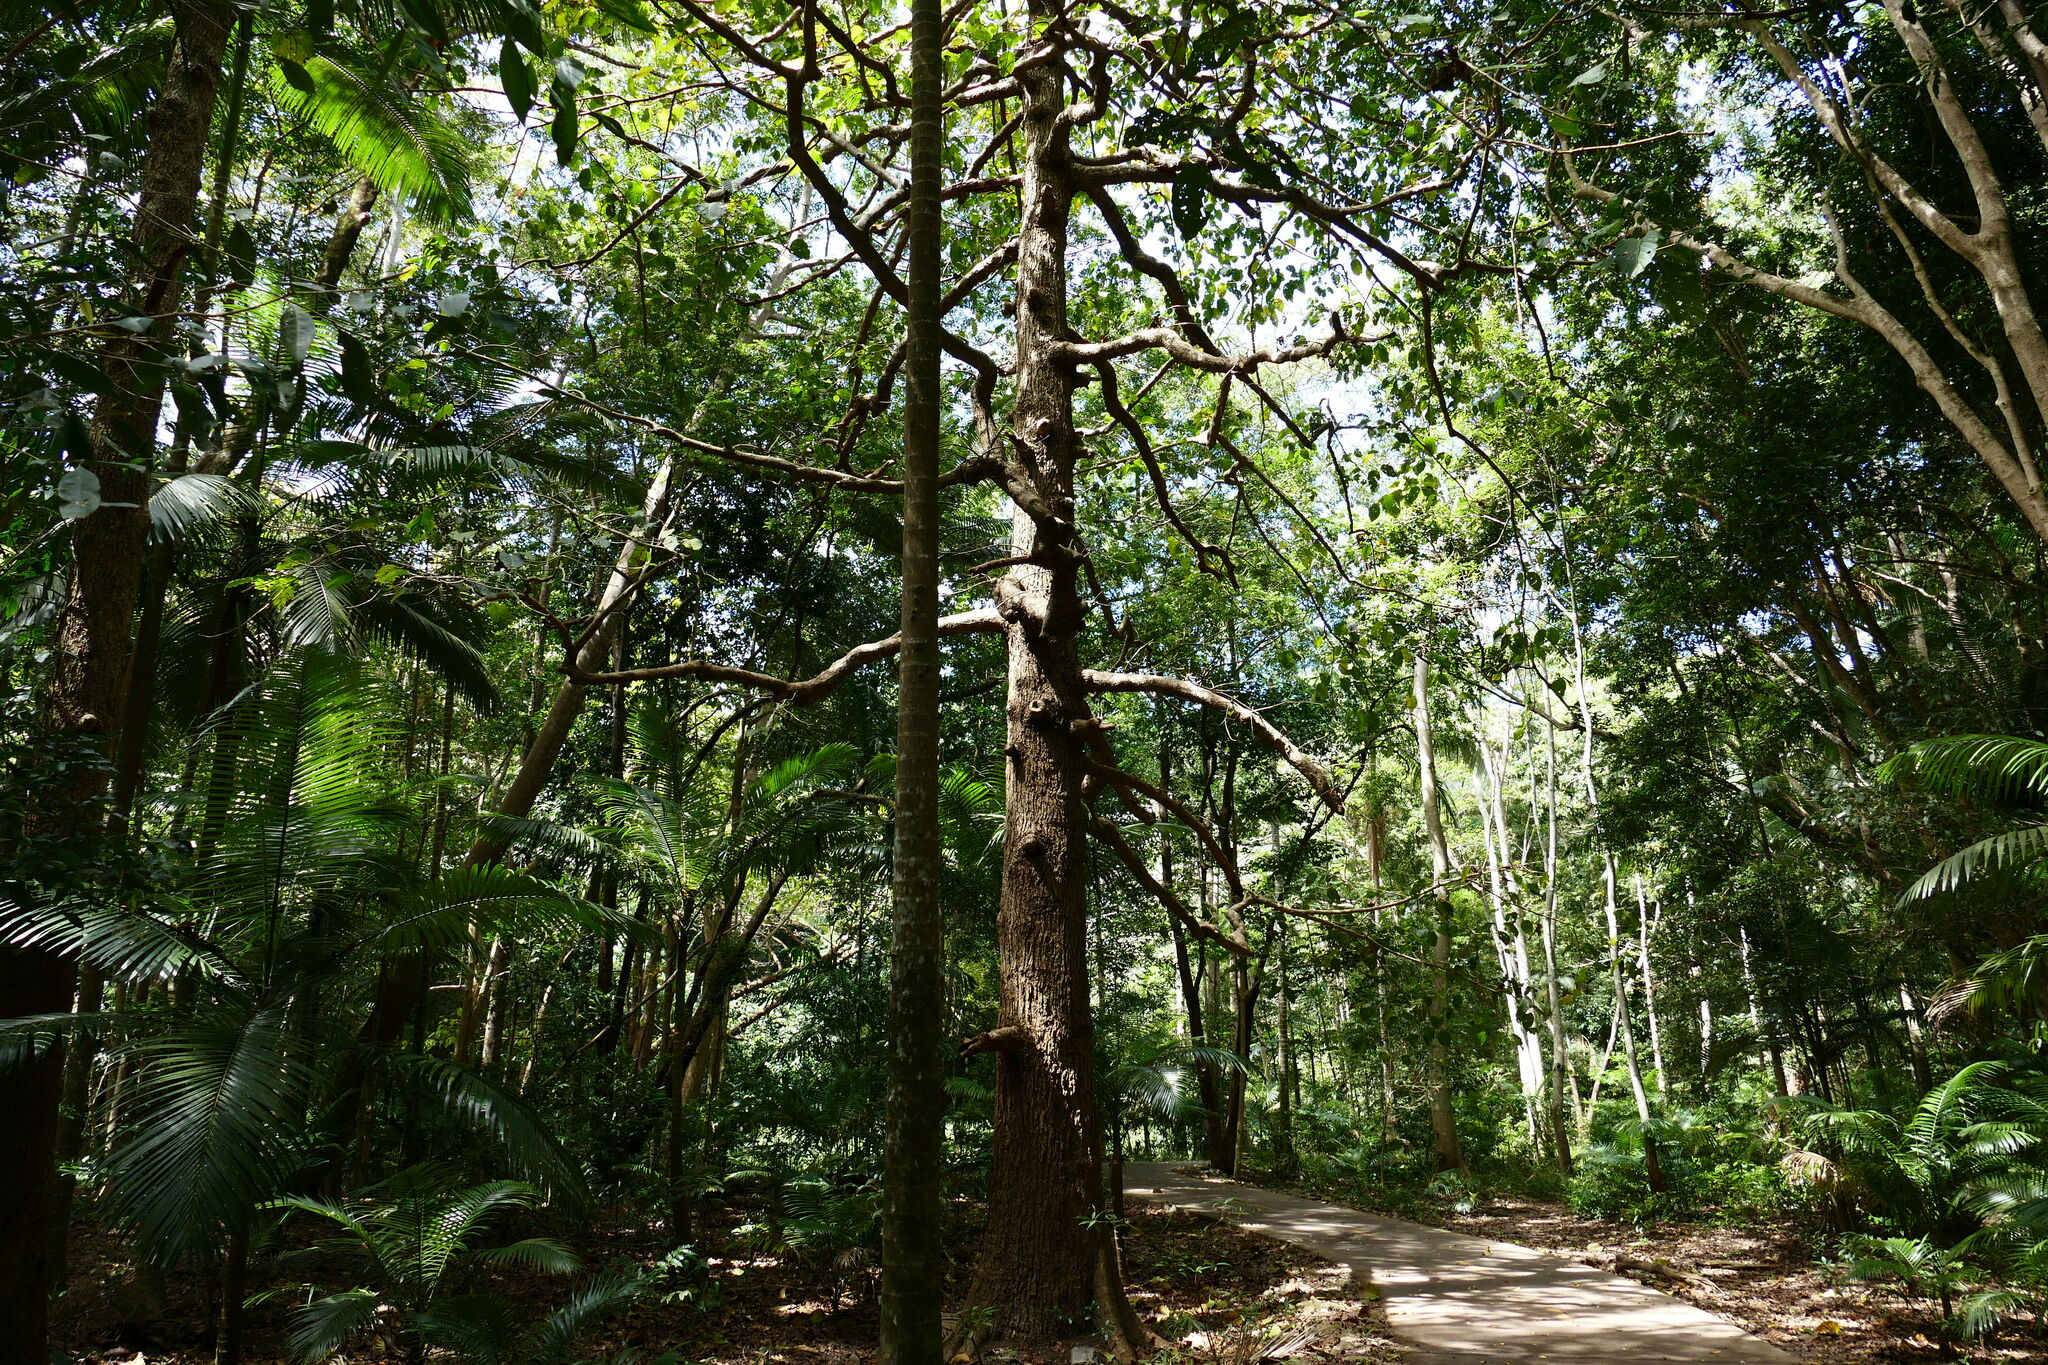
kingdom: Plantae
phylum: Tracheophyta
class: Magnoliopsida
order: Gentianales
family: Rubiaceae
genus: Nauclea
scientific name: Nauclea orientalis
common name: Leichhardt-pine
